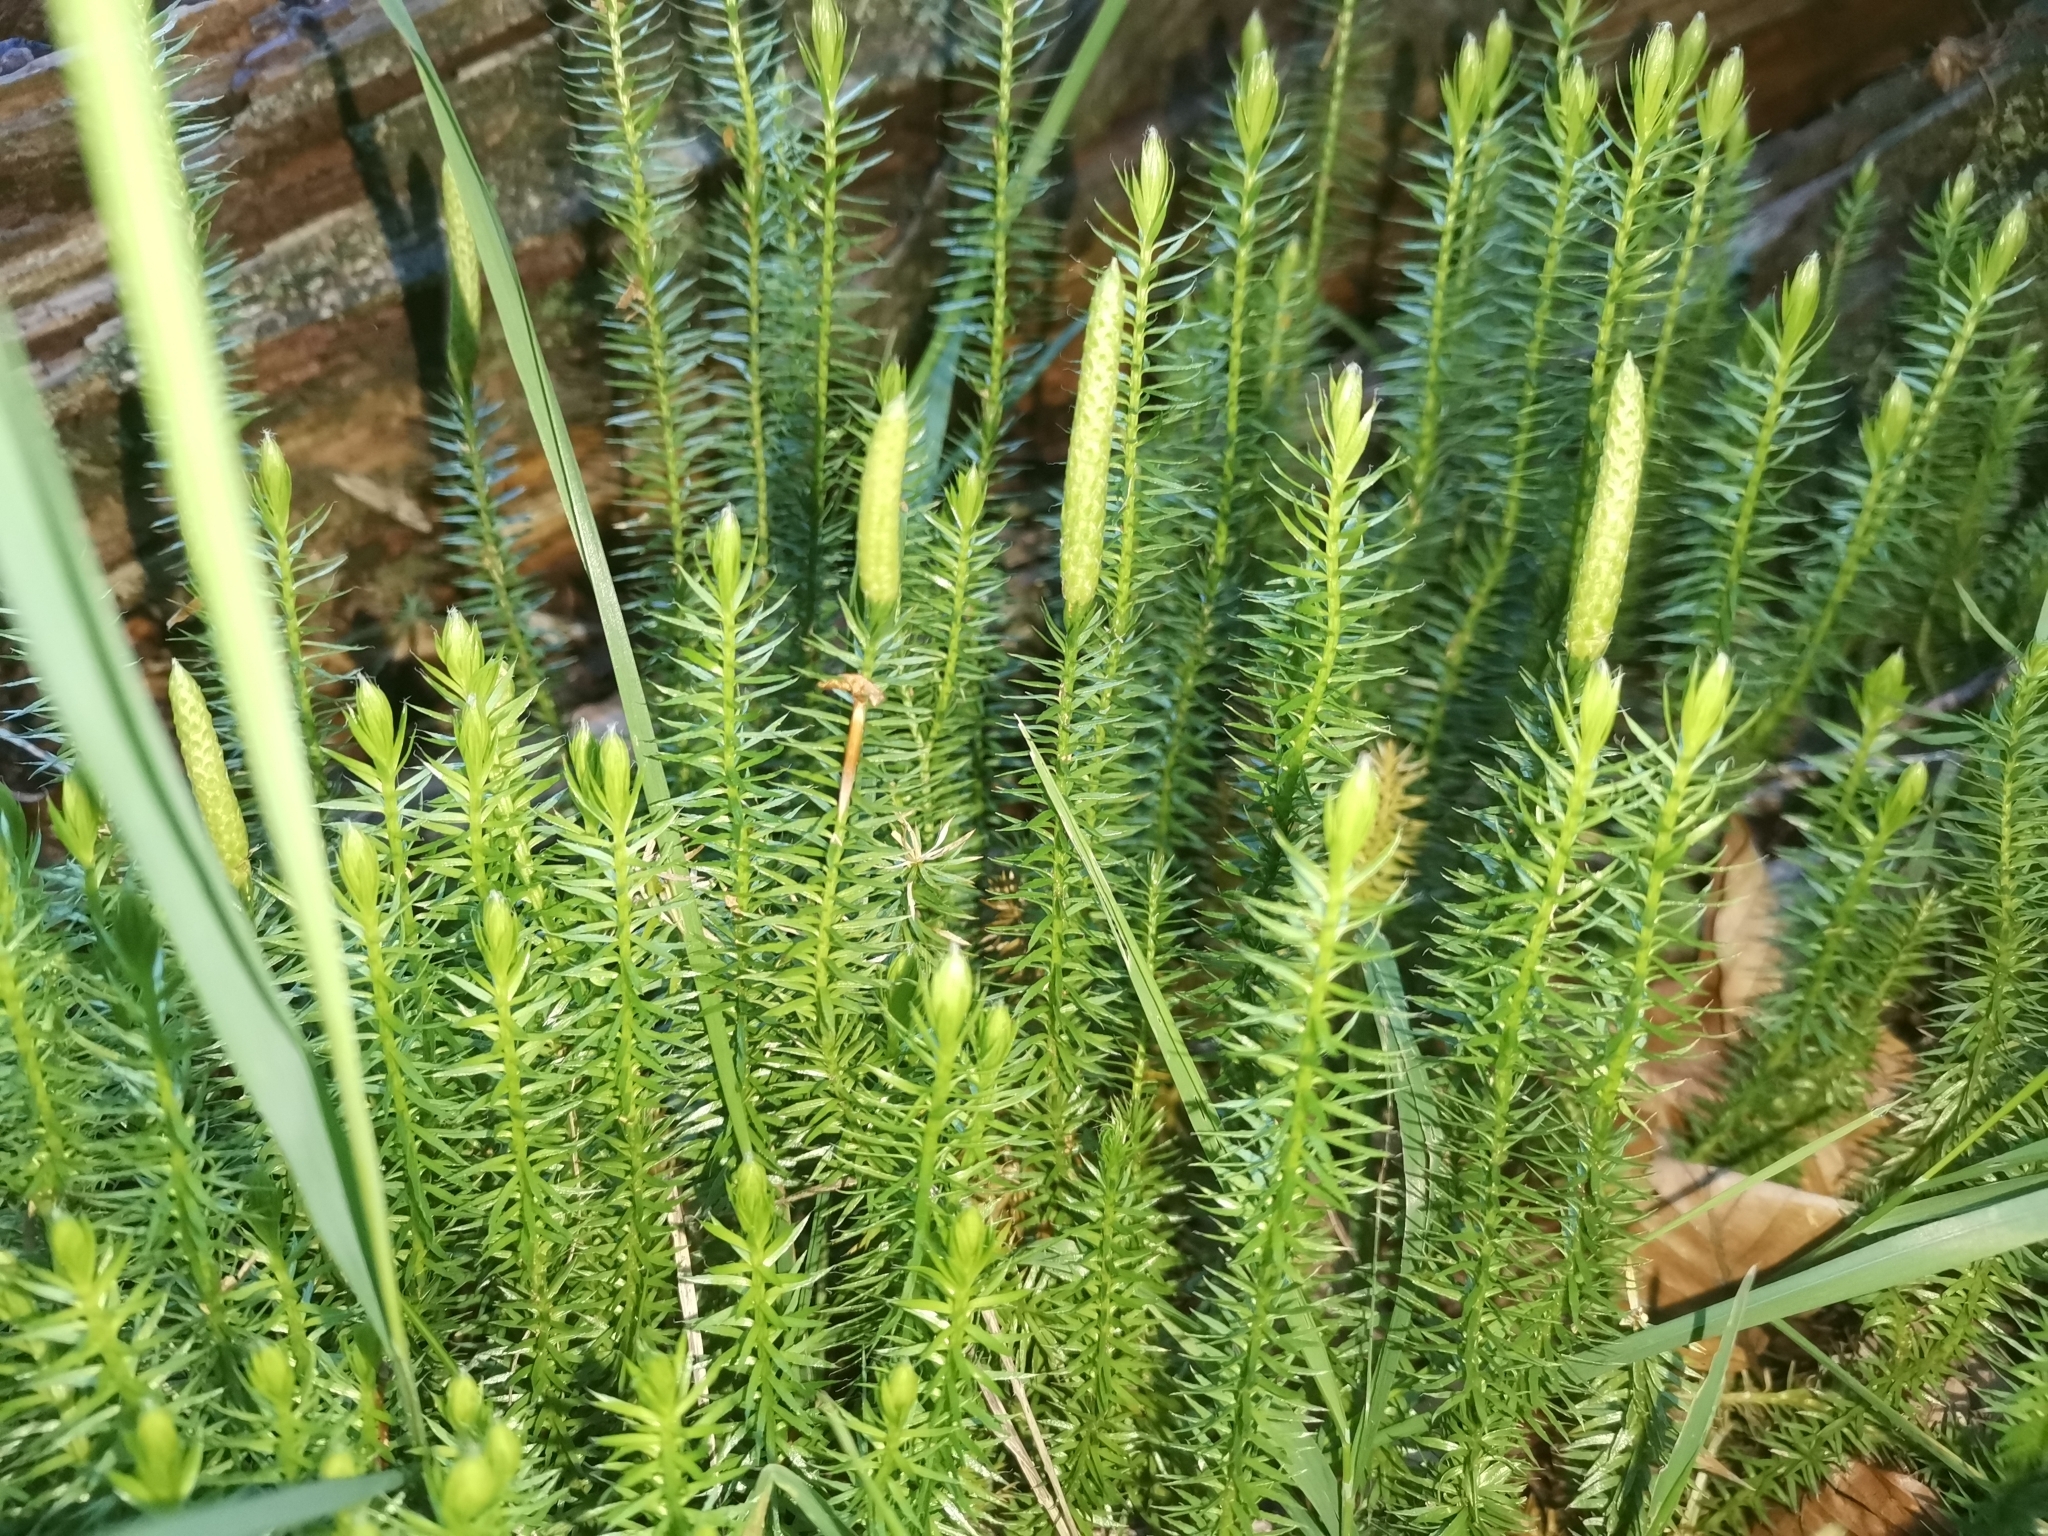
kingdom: Plantae
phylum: Tracheophyta
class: Lycopodiopsida
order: Lycopodiales
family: Lycopodiaceae
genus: Spinulum
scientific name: Spinulum annotinum
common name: Interrupted club-moss
